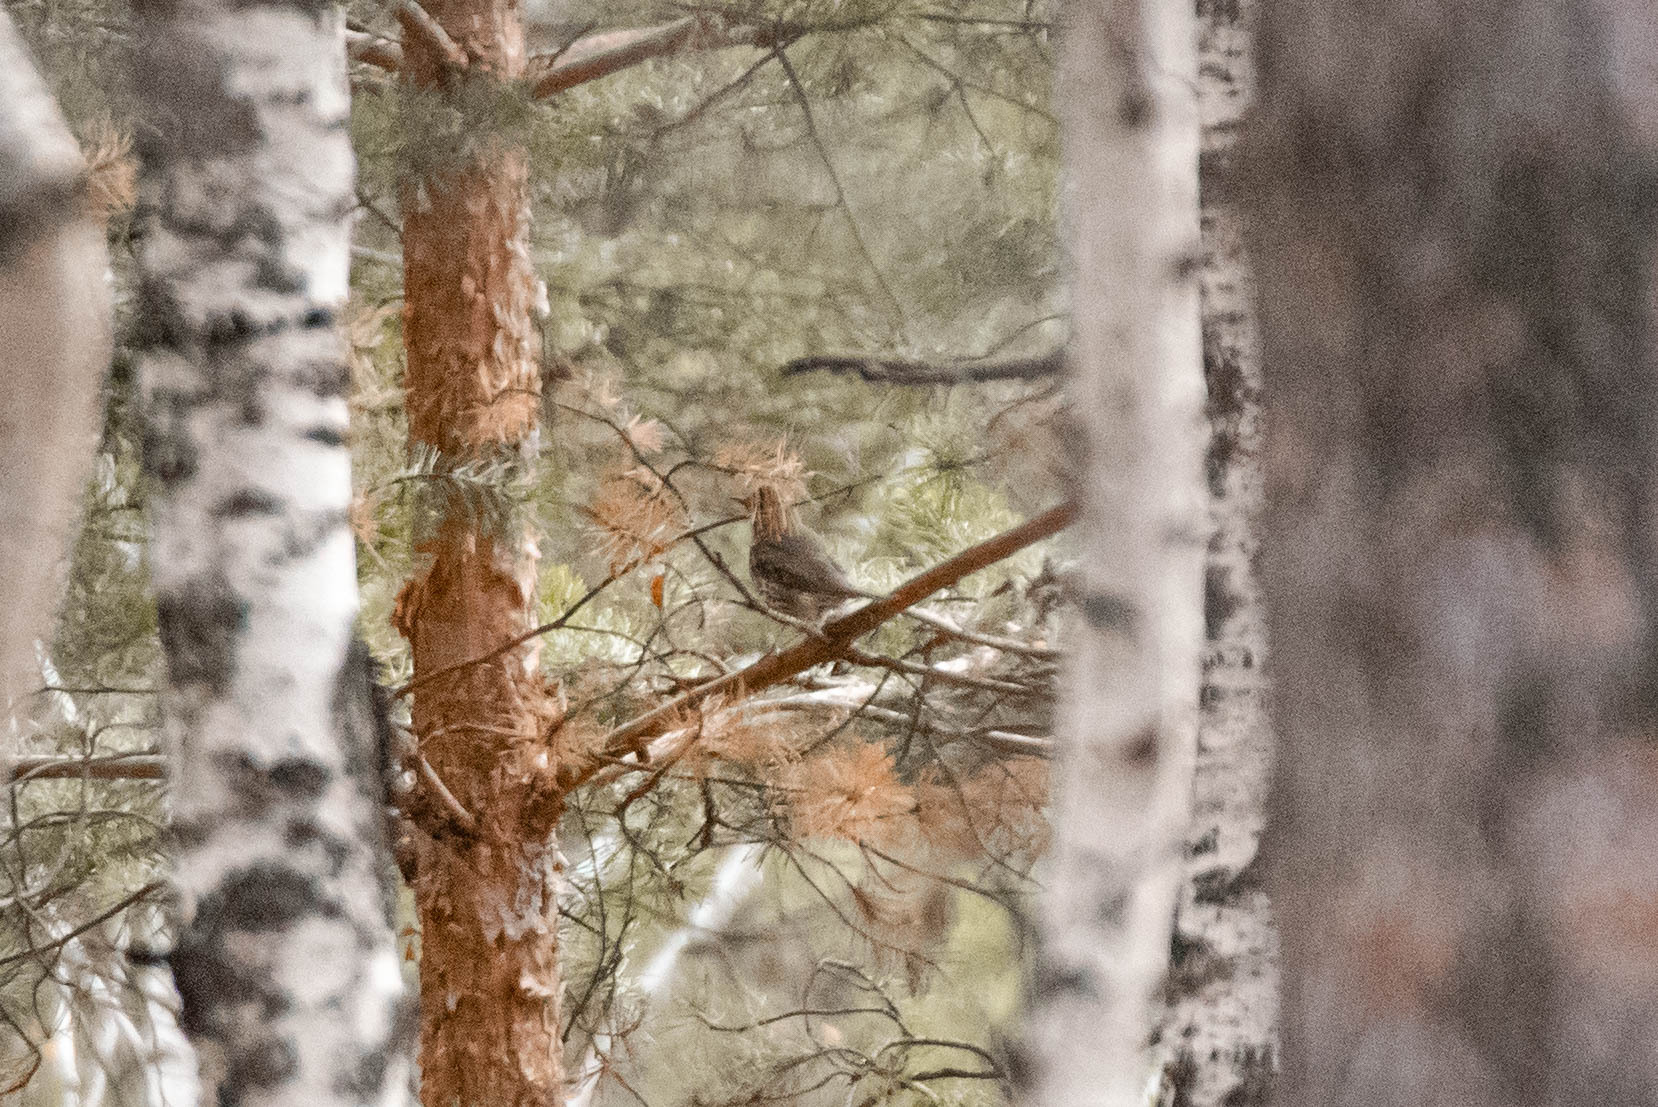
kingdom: Animalia
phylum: Chordata
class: Aves
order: Passeriformes
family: Turdidae
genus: Turdus
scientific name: Turdus philomelos
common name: Song thrush
